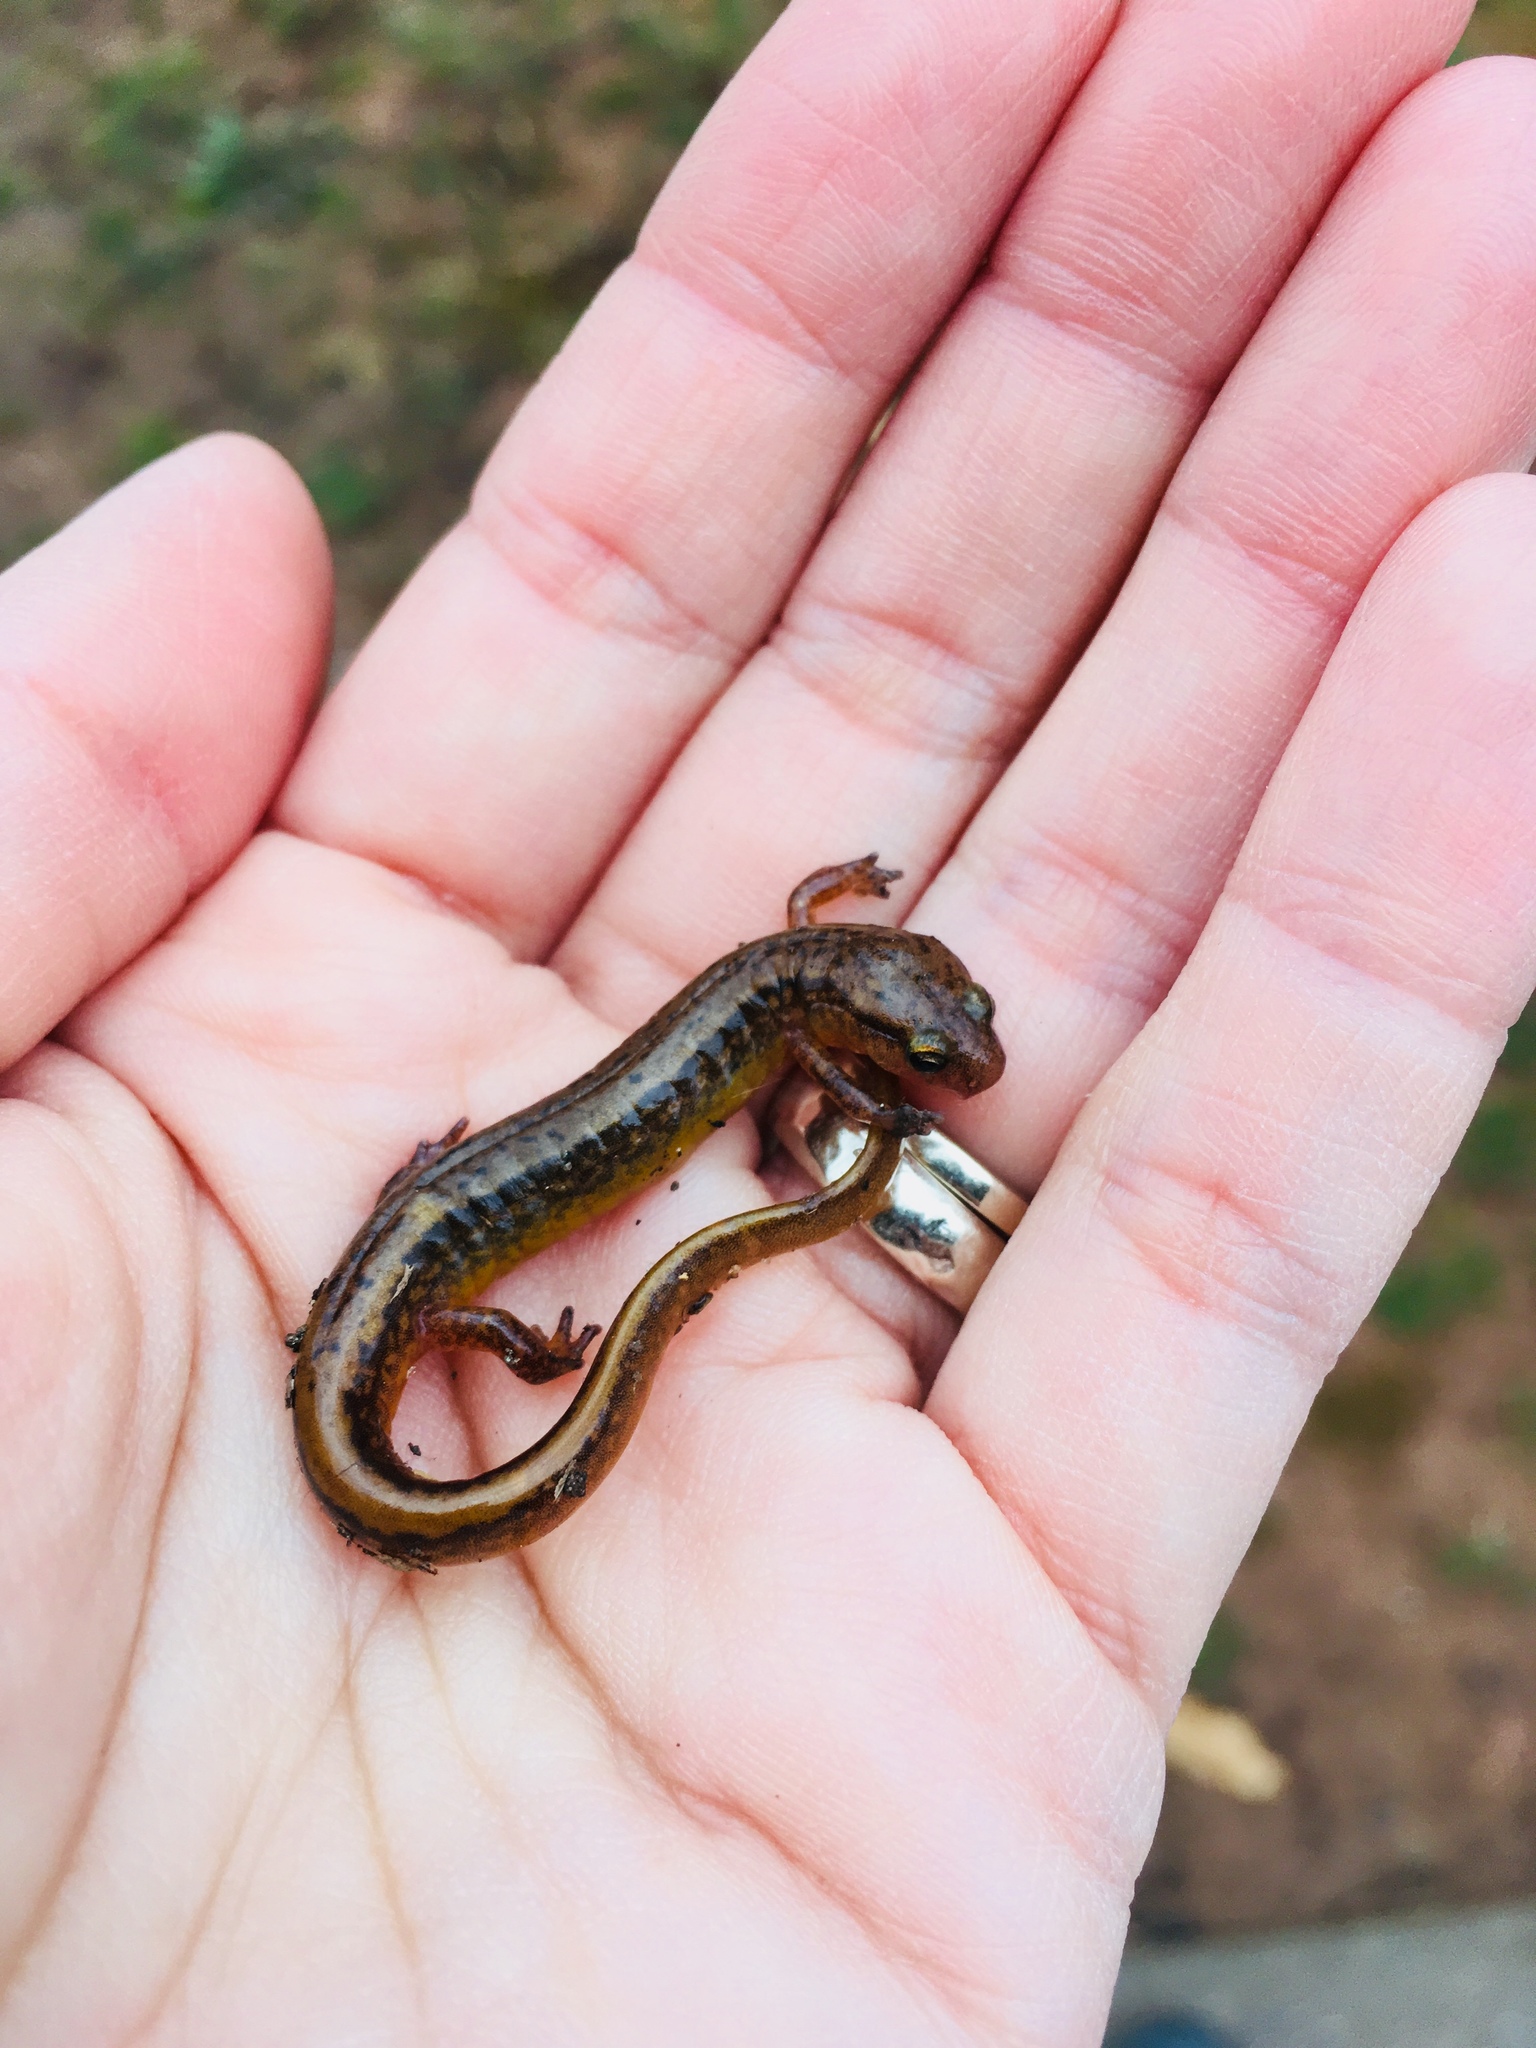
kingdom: Animalia
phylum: Chordata
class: Amphibia
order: Caudata
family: Plethodontidae
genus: Eurycea
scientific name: Eurycea bislineata
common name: Northern two-lined salamander
